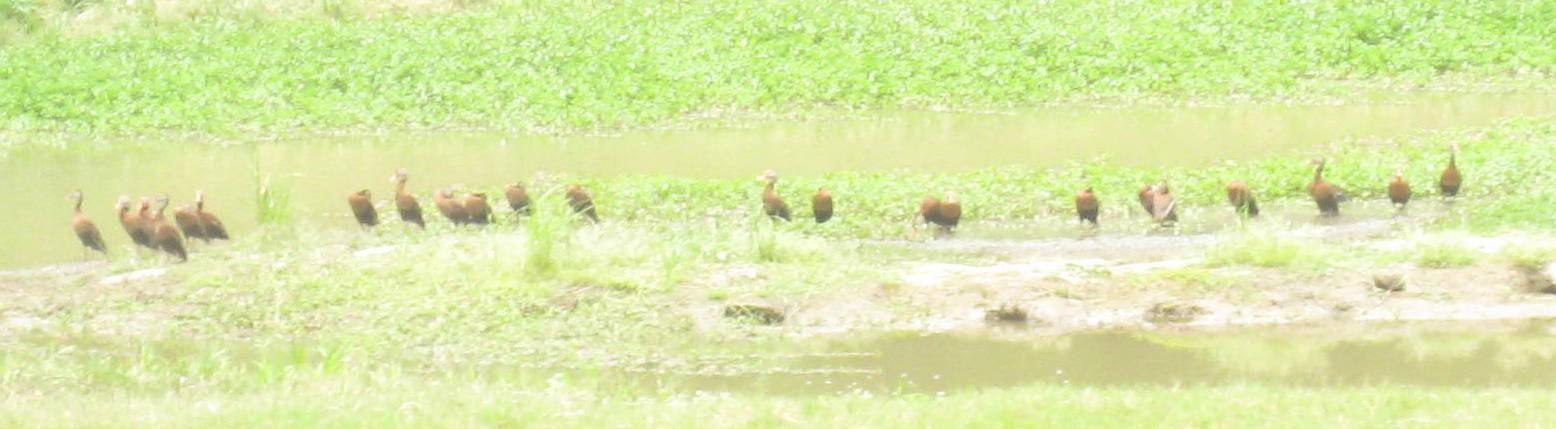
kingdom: Animalia
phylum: Chordata
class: Aves
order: Anseriformes
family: Anatidae
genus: Dendrocygna
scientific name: Dendrocygna autumnalis
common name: Black-bellied whistling duck
